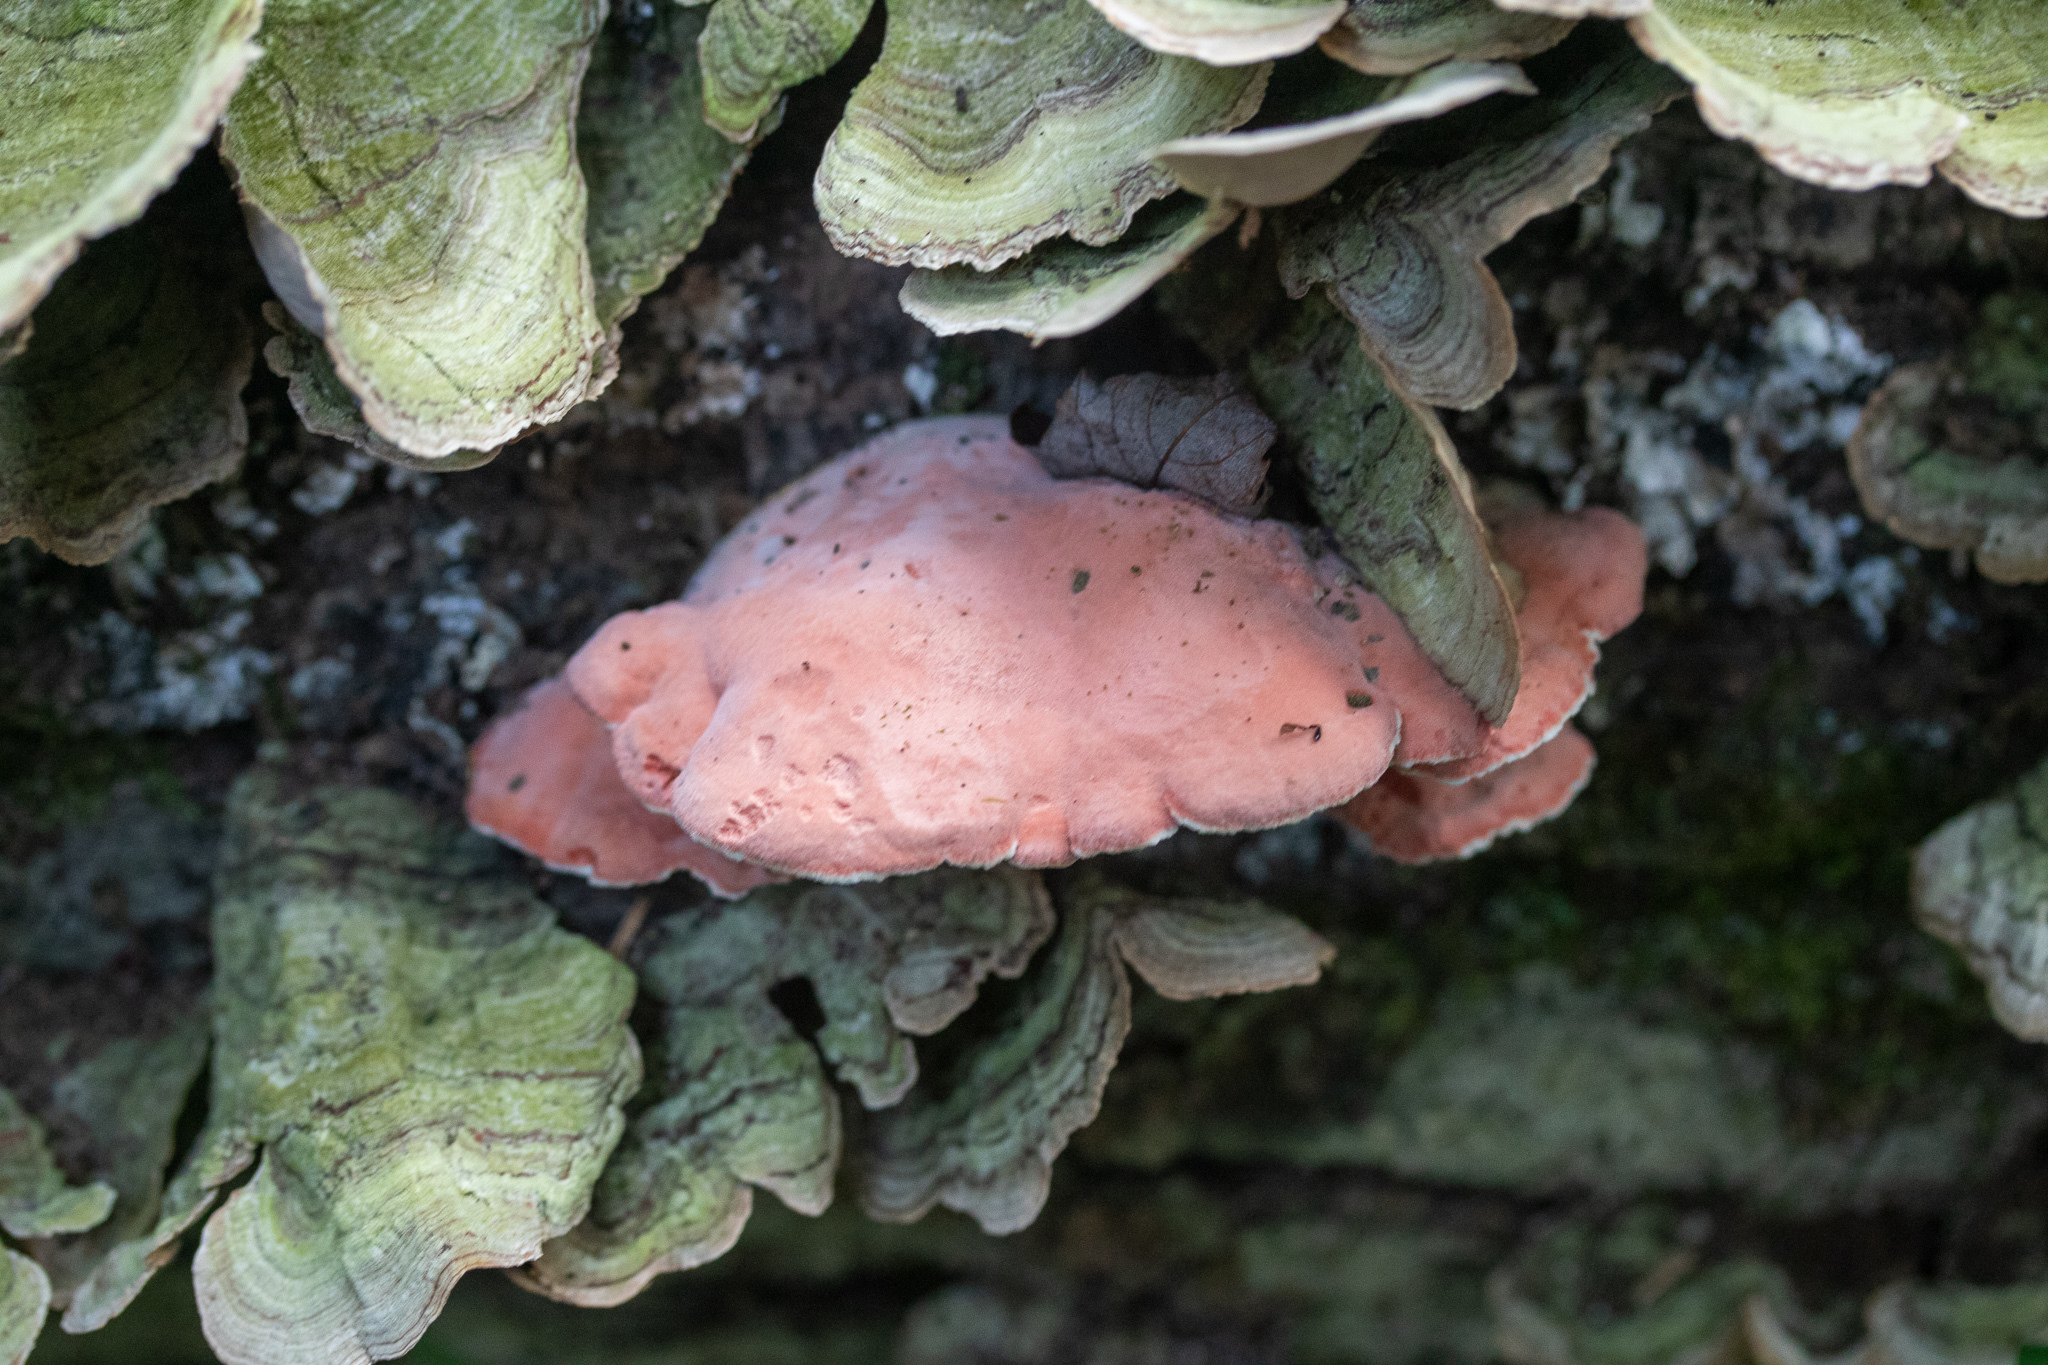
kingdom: Fungi
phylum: Basidiomycota
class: Agaricomycetes
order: Polyporales
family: Irpicaceae
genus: Byssomerulius
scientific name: Byssomerulius incarnatus
